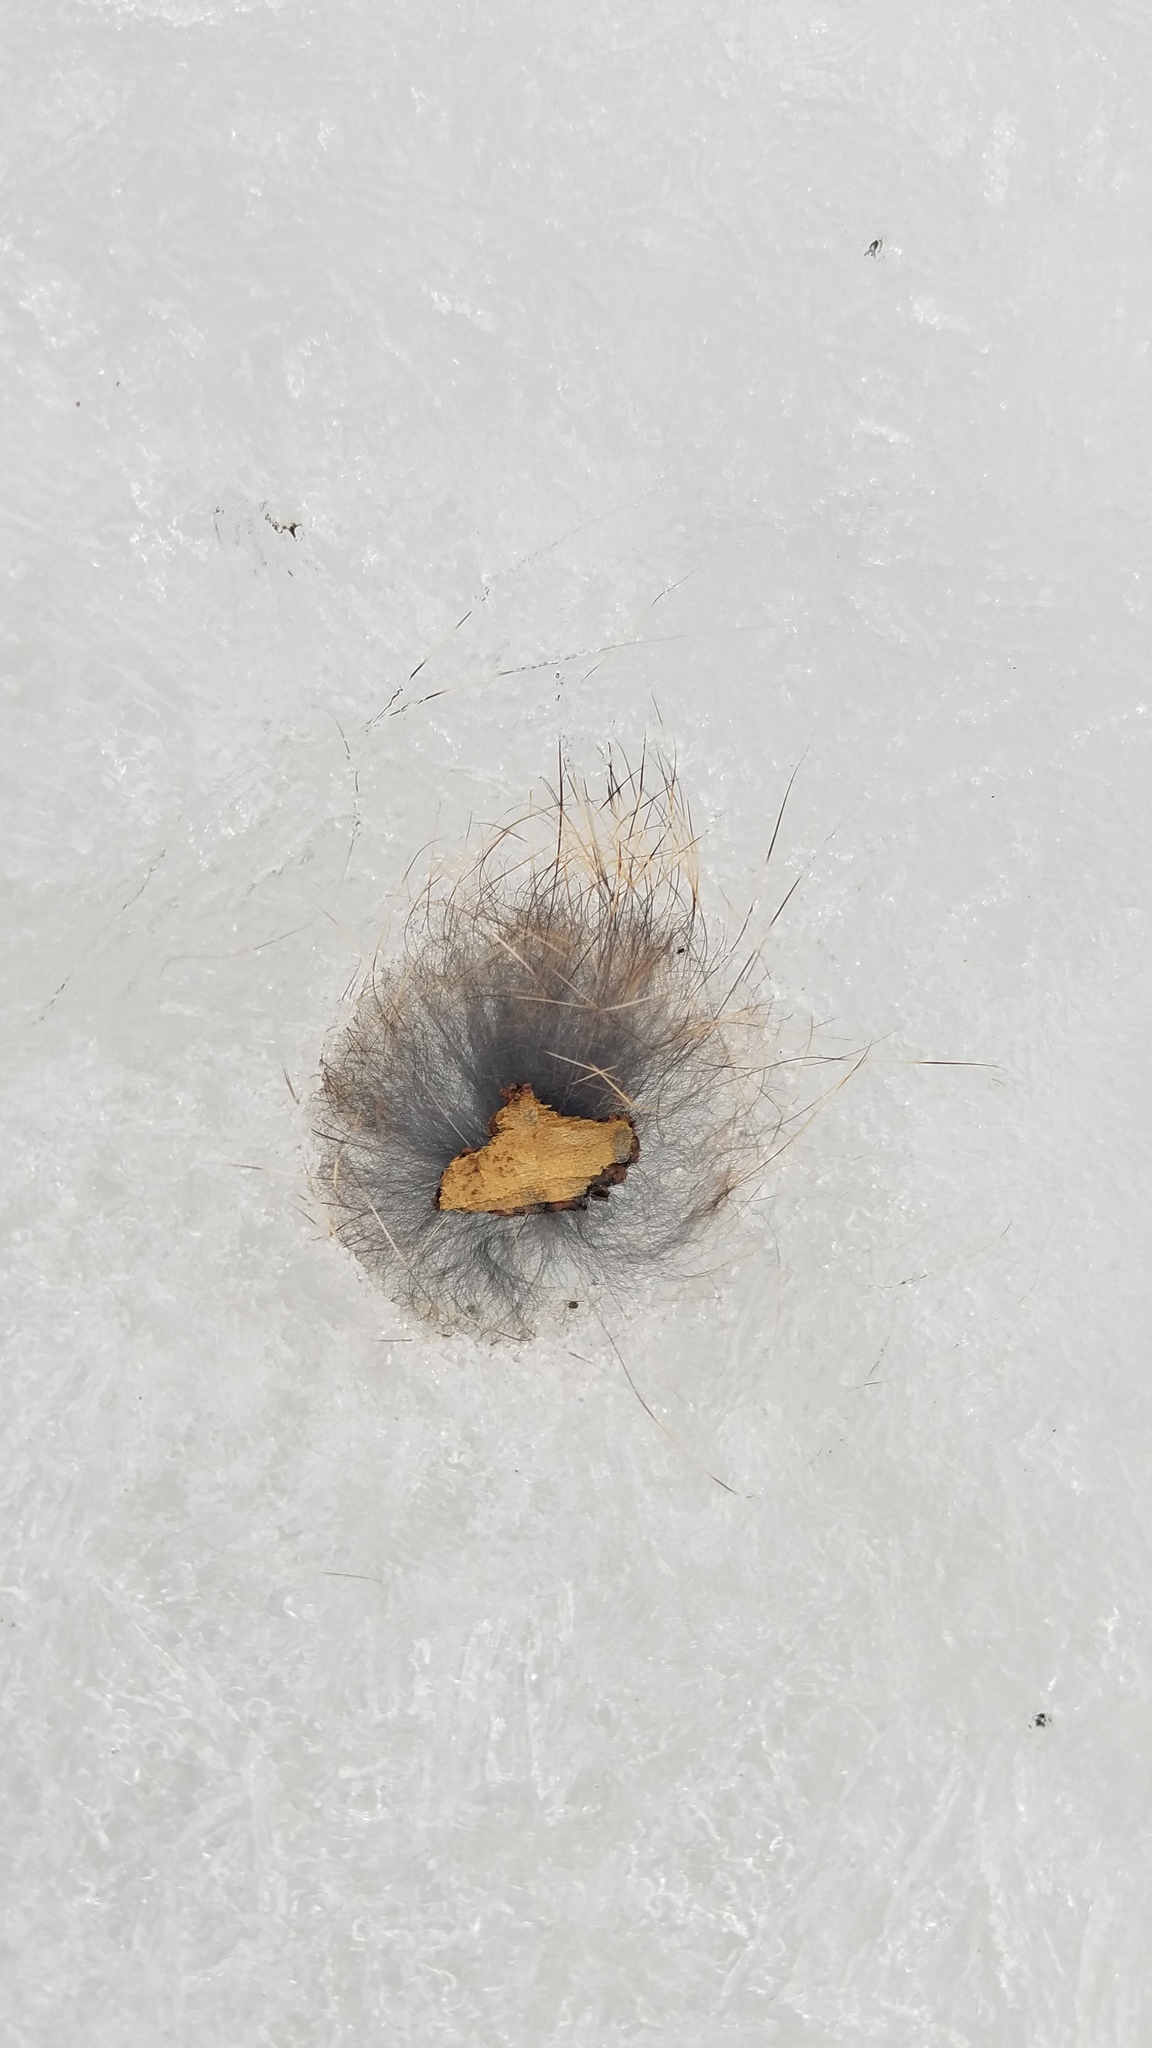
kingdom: Animalia
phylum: Chordata
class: Mammalia
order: Lagomorpha
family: Leporidae
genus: Sylvilagus
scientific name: Sylvilagus floridanus
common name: Eastern cottontail
